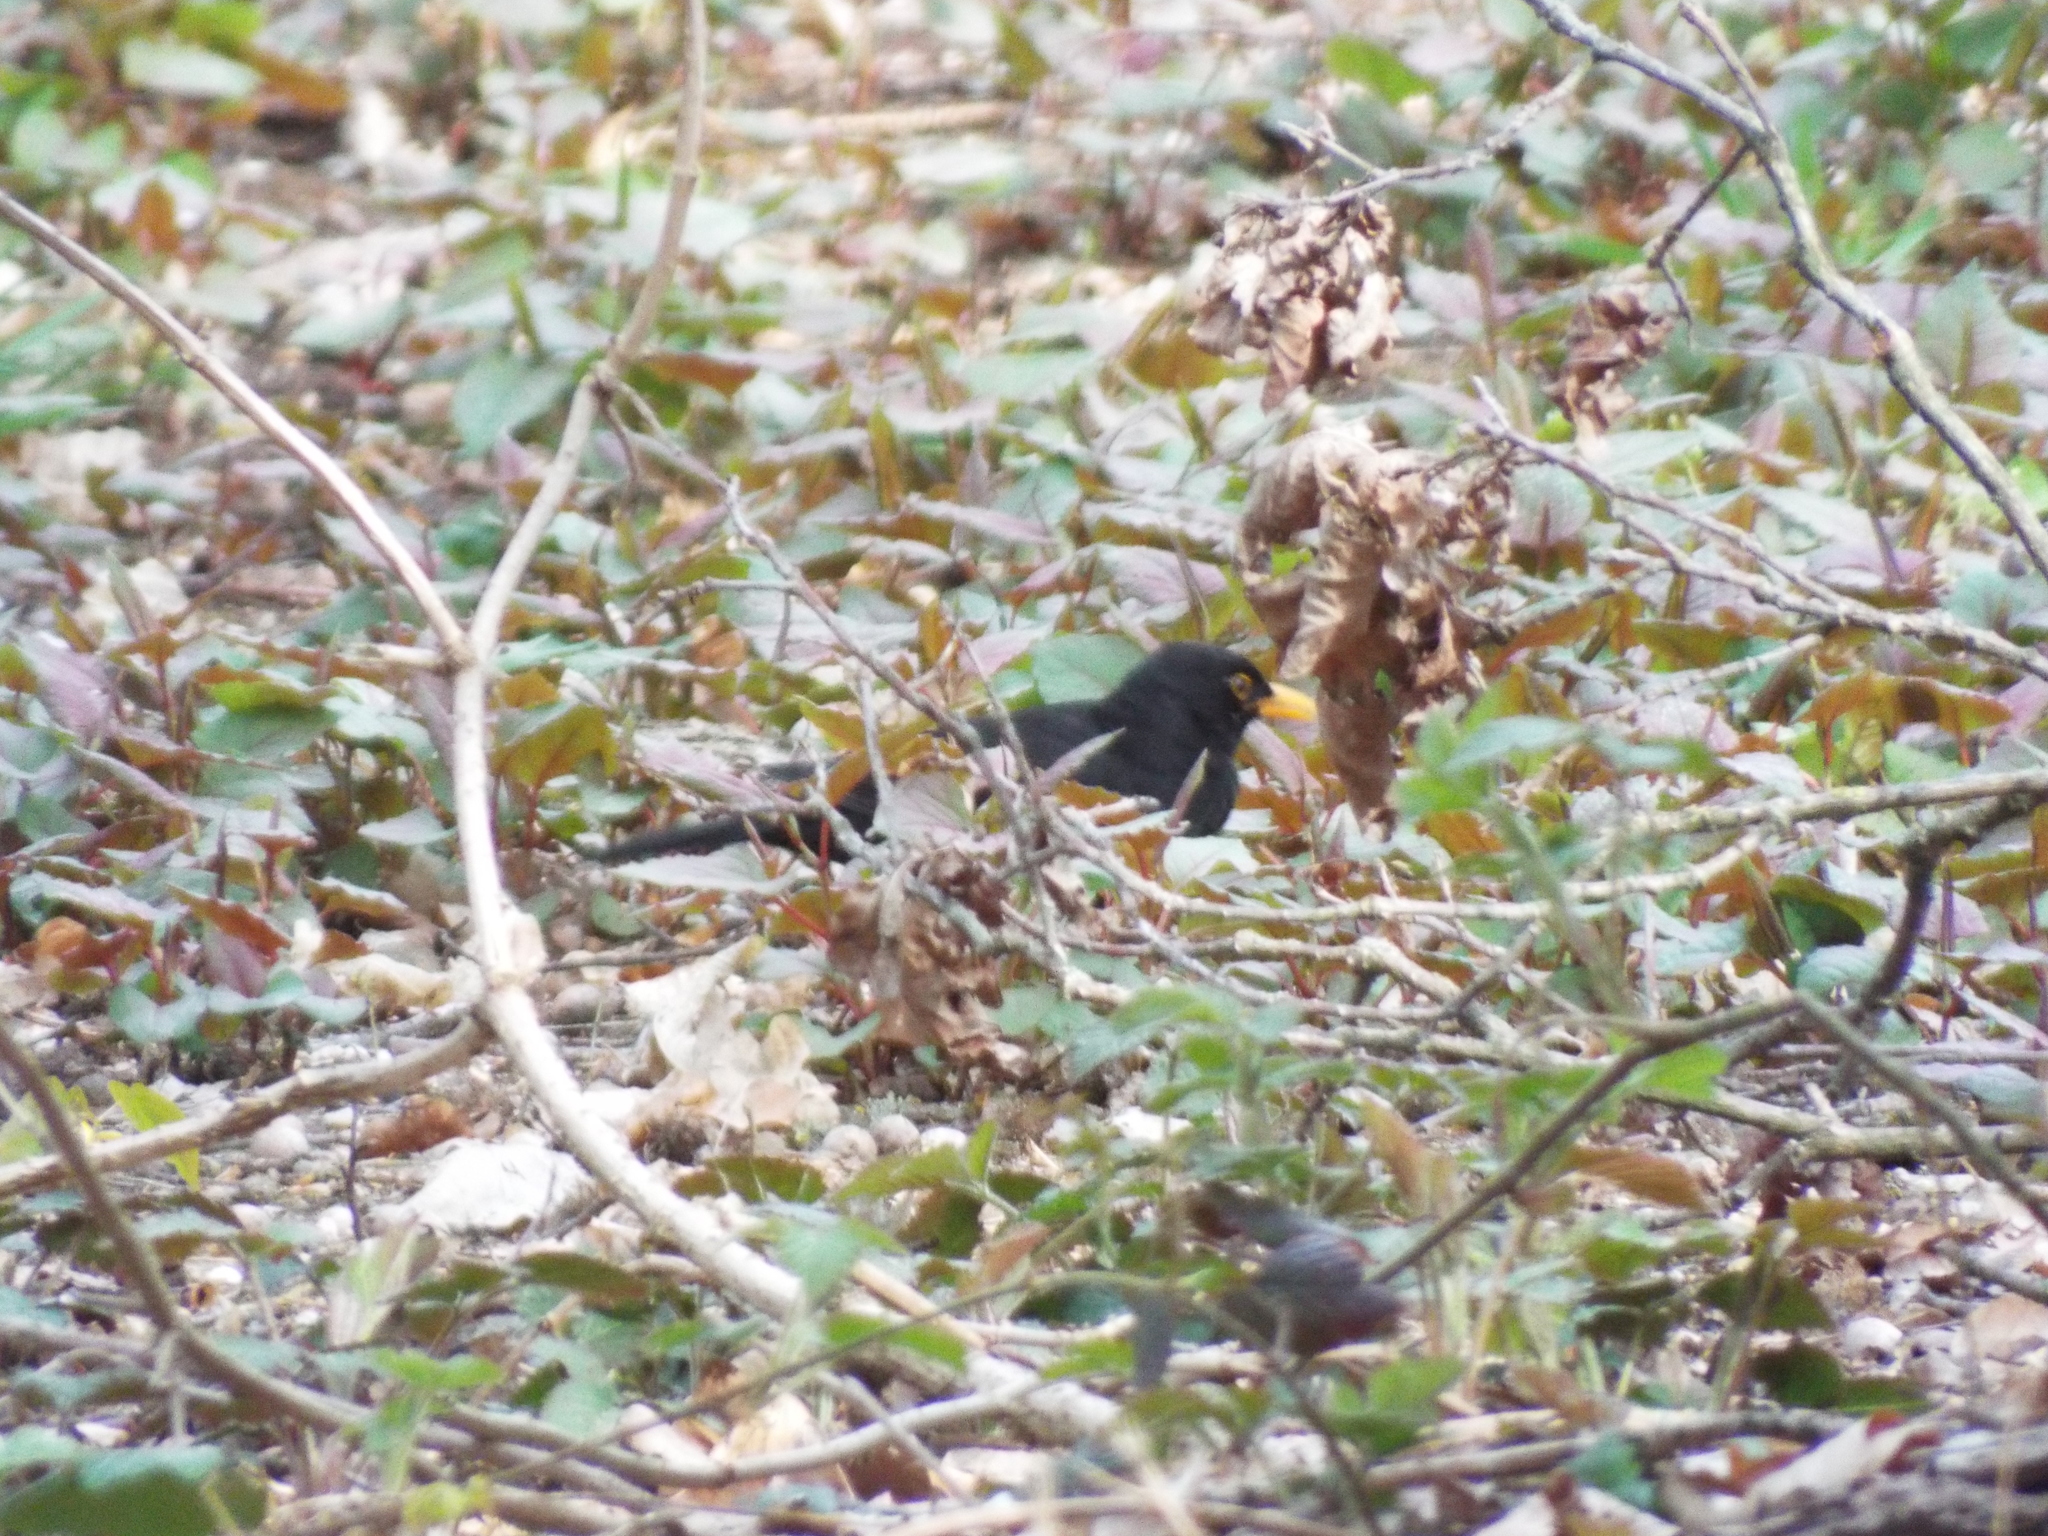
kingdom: Animalia
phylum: Chordata
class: Aves
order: Passeriformes
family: Turdidae
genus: Turdus
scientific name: Turdus merula
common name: Common blackbird
